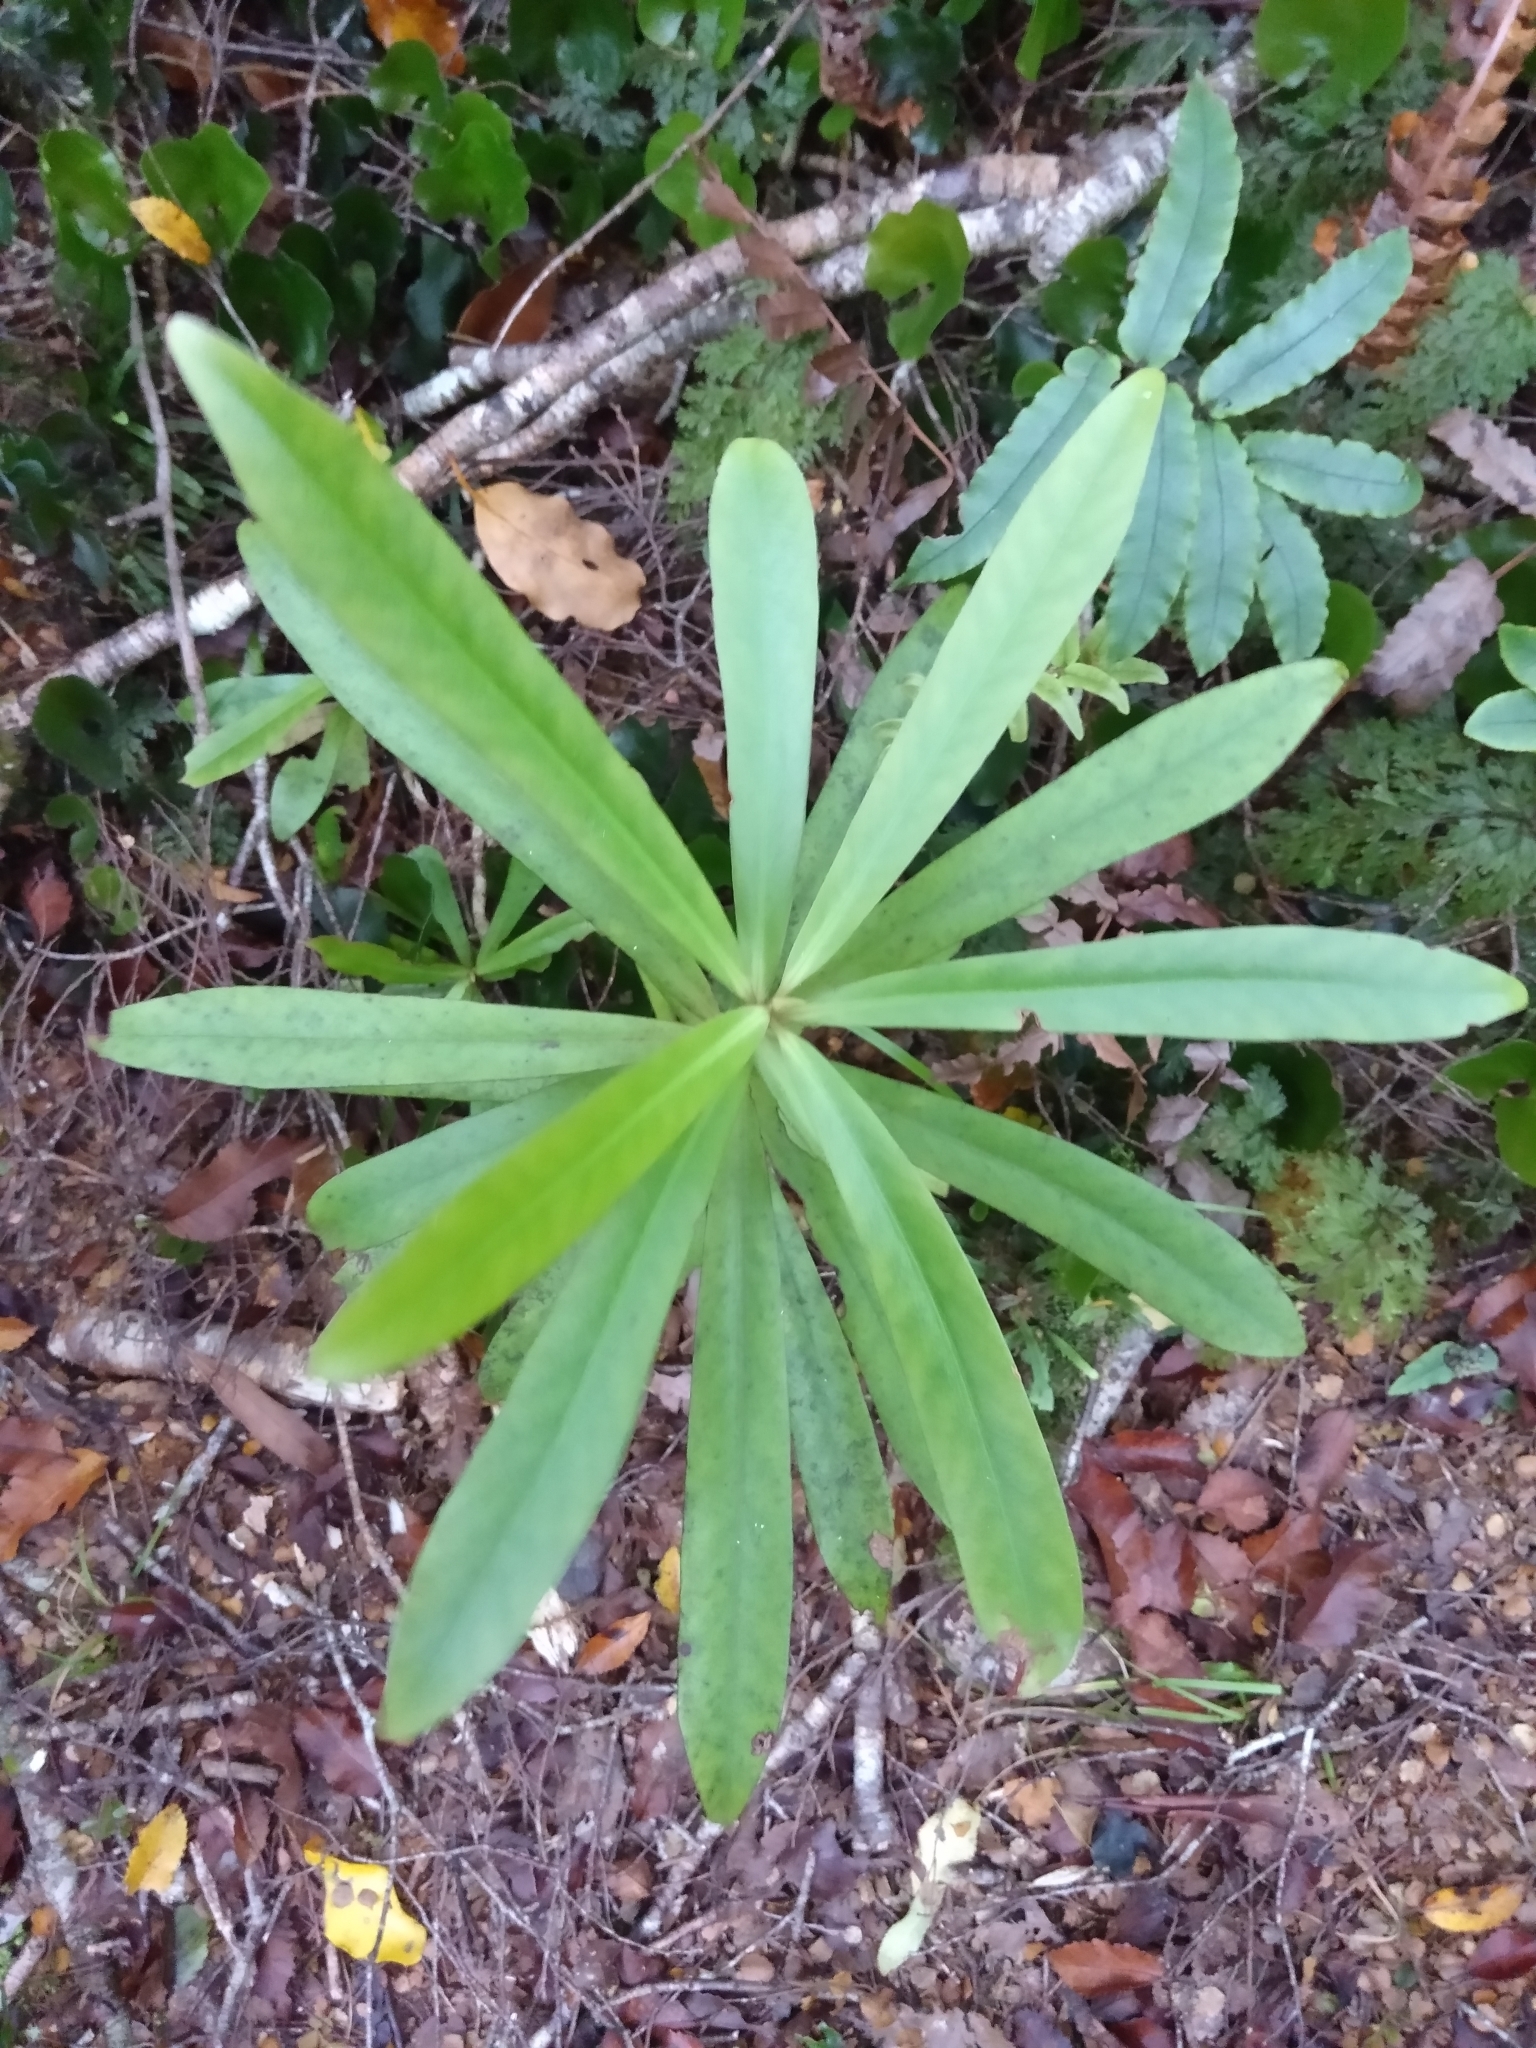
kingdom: Plantae
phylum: Tracheophyta
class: Magnoliopsida
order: Ericales
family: Primulaceae
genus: Myrsine
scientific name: Myrsine salicina
